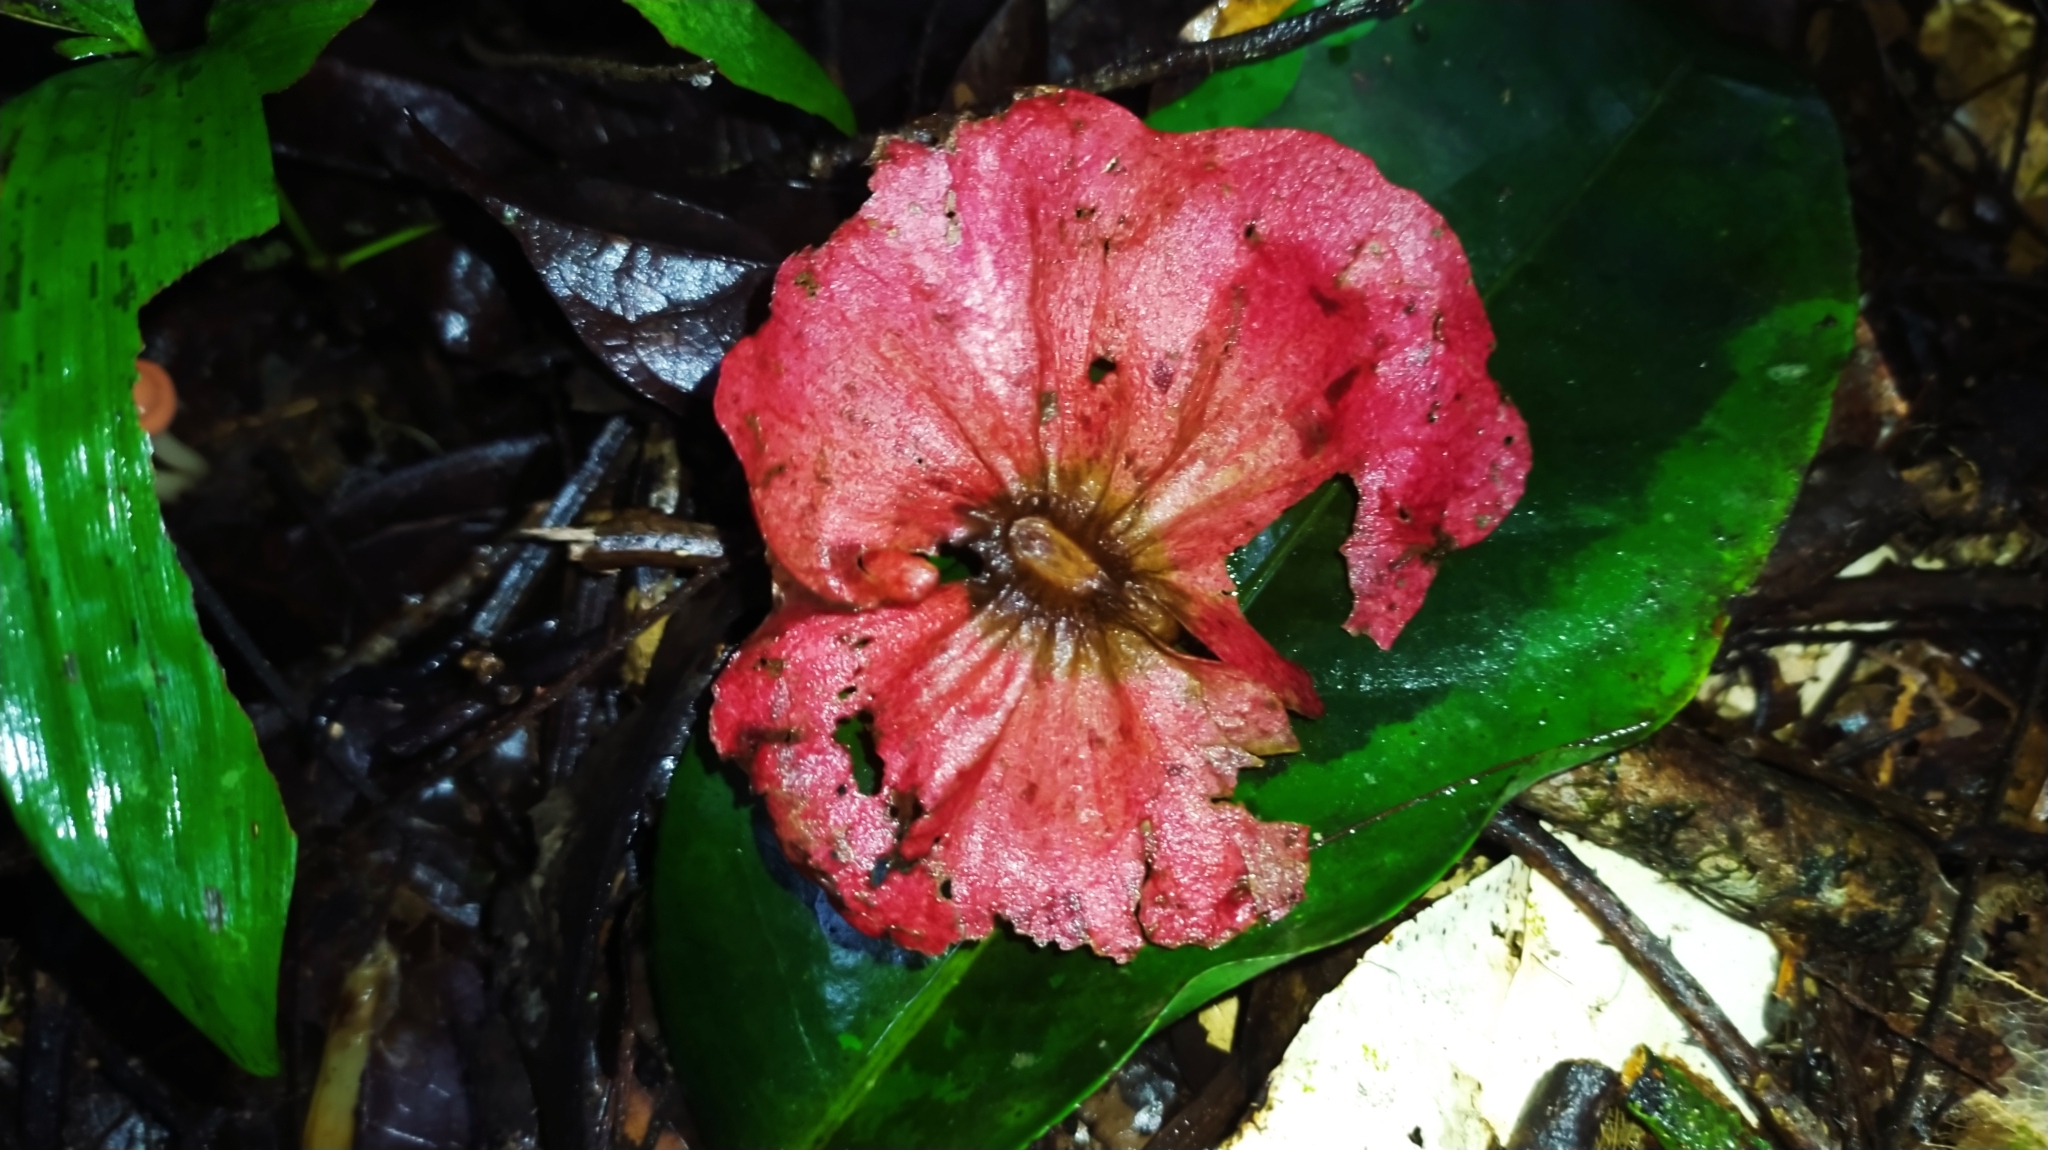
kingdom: Plantae
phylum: Tracheophyta
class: Magnoliopsida
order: Malpighiales
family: Malpighiaceae
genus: Mezia
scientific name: Mezia includens
